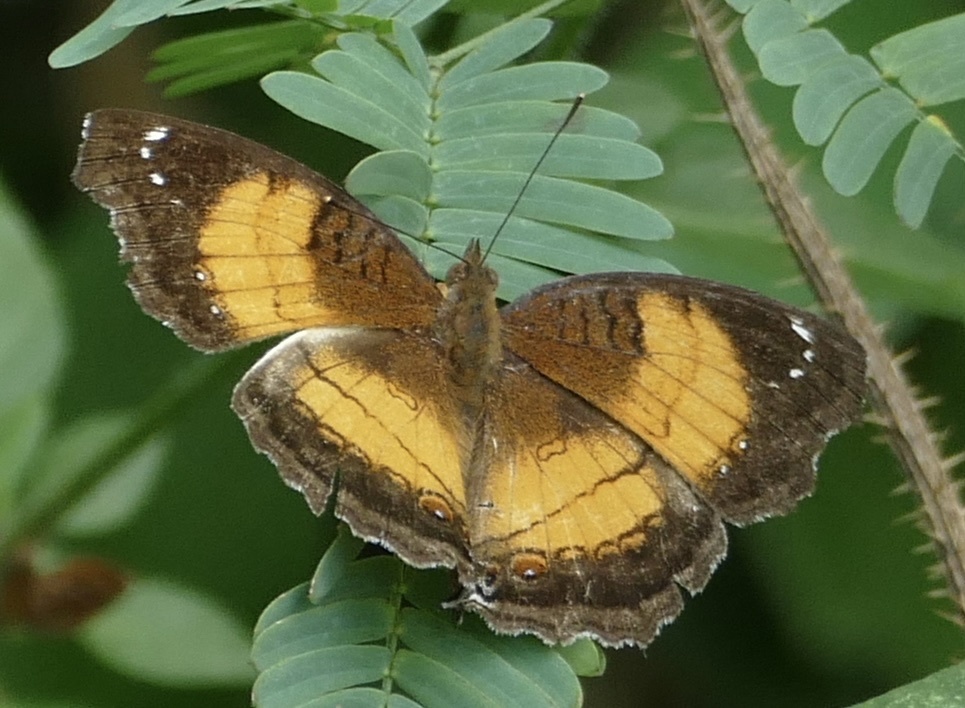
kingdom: Animalia
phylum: Arthropoda
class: Insecta
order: Lepidoptera
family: Nymphalidae
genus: Junonia
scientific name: Junonia terea
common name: Soldier pansy
